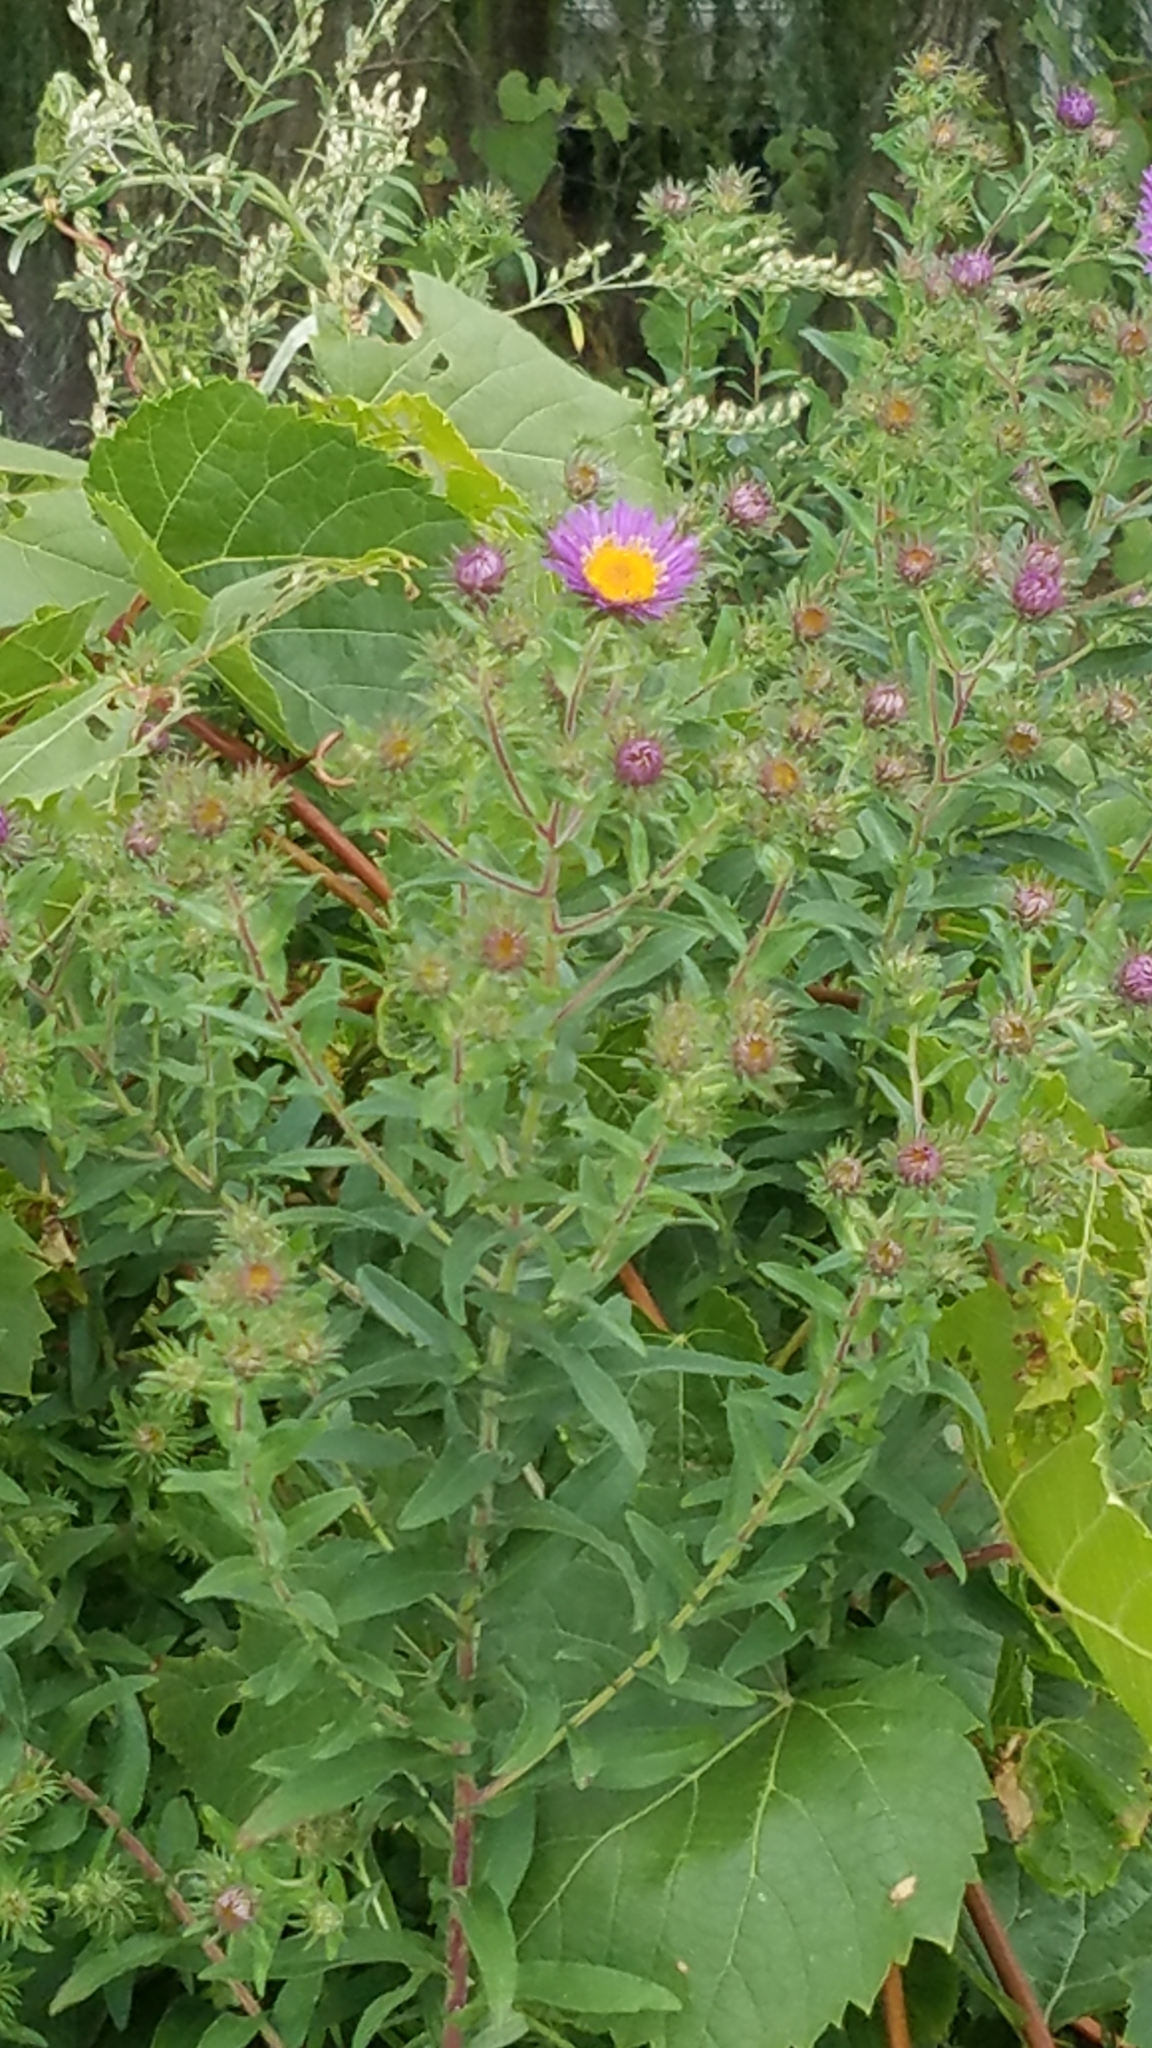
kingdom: Plantae
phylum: Tracheophyta
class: Magnoliopsida
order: Asterales
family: Asteraceae
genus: Symphyotrichum
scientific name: Symphyotrichum novae-angliae
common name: Michaelmas daisy
